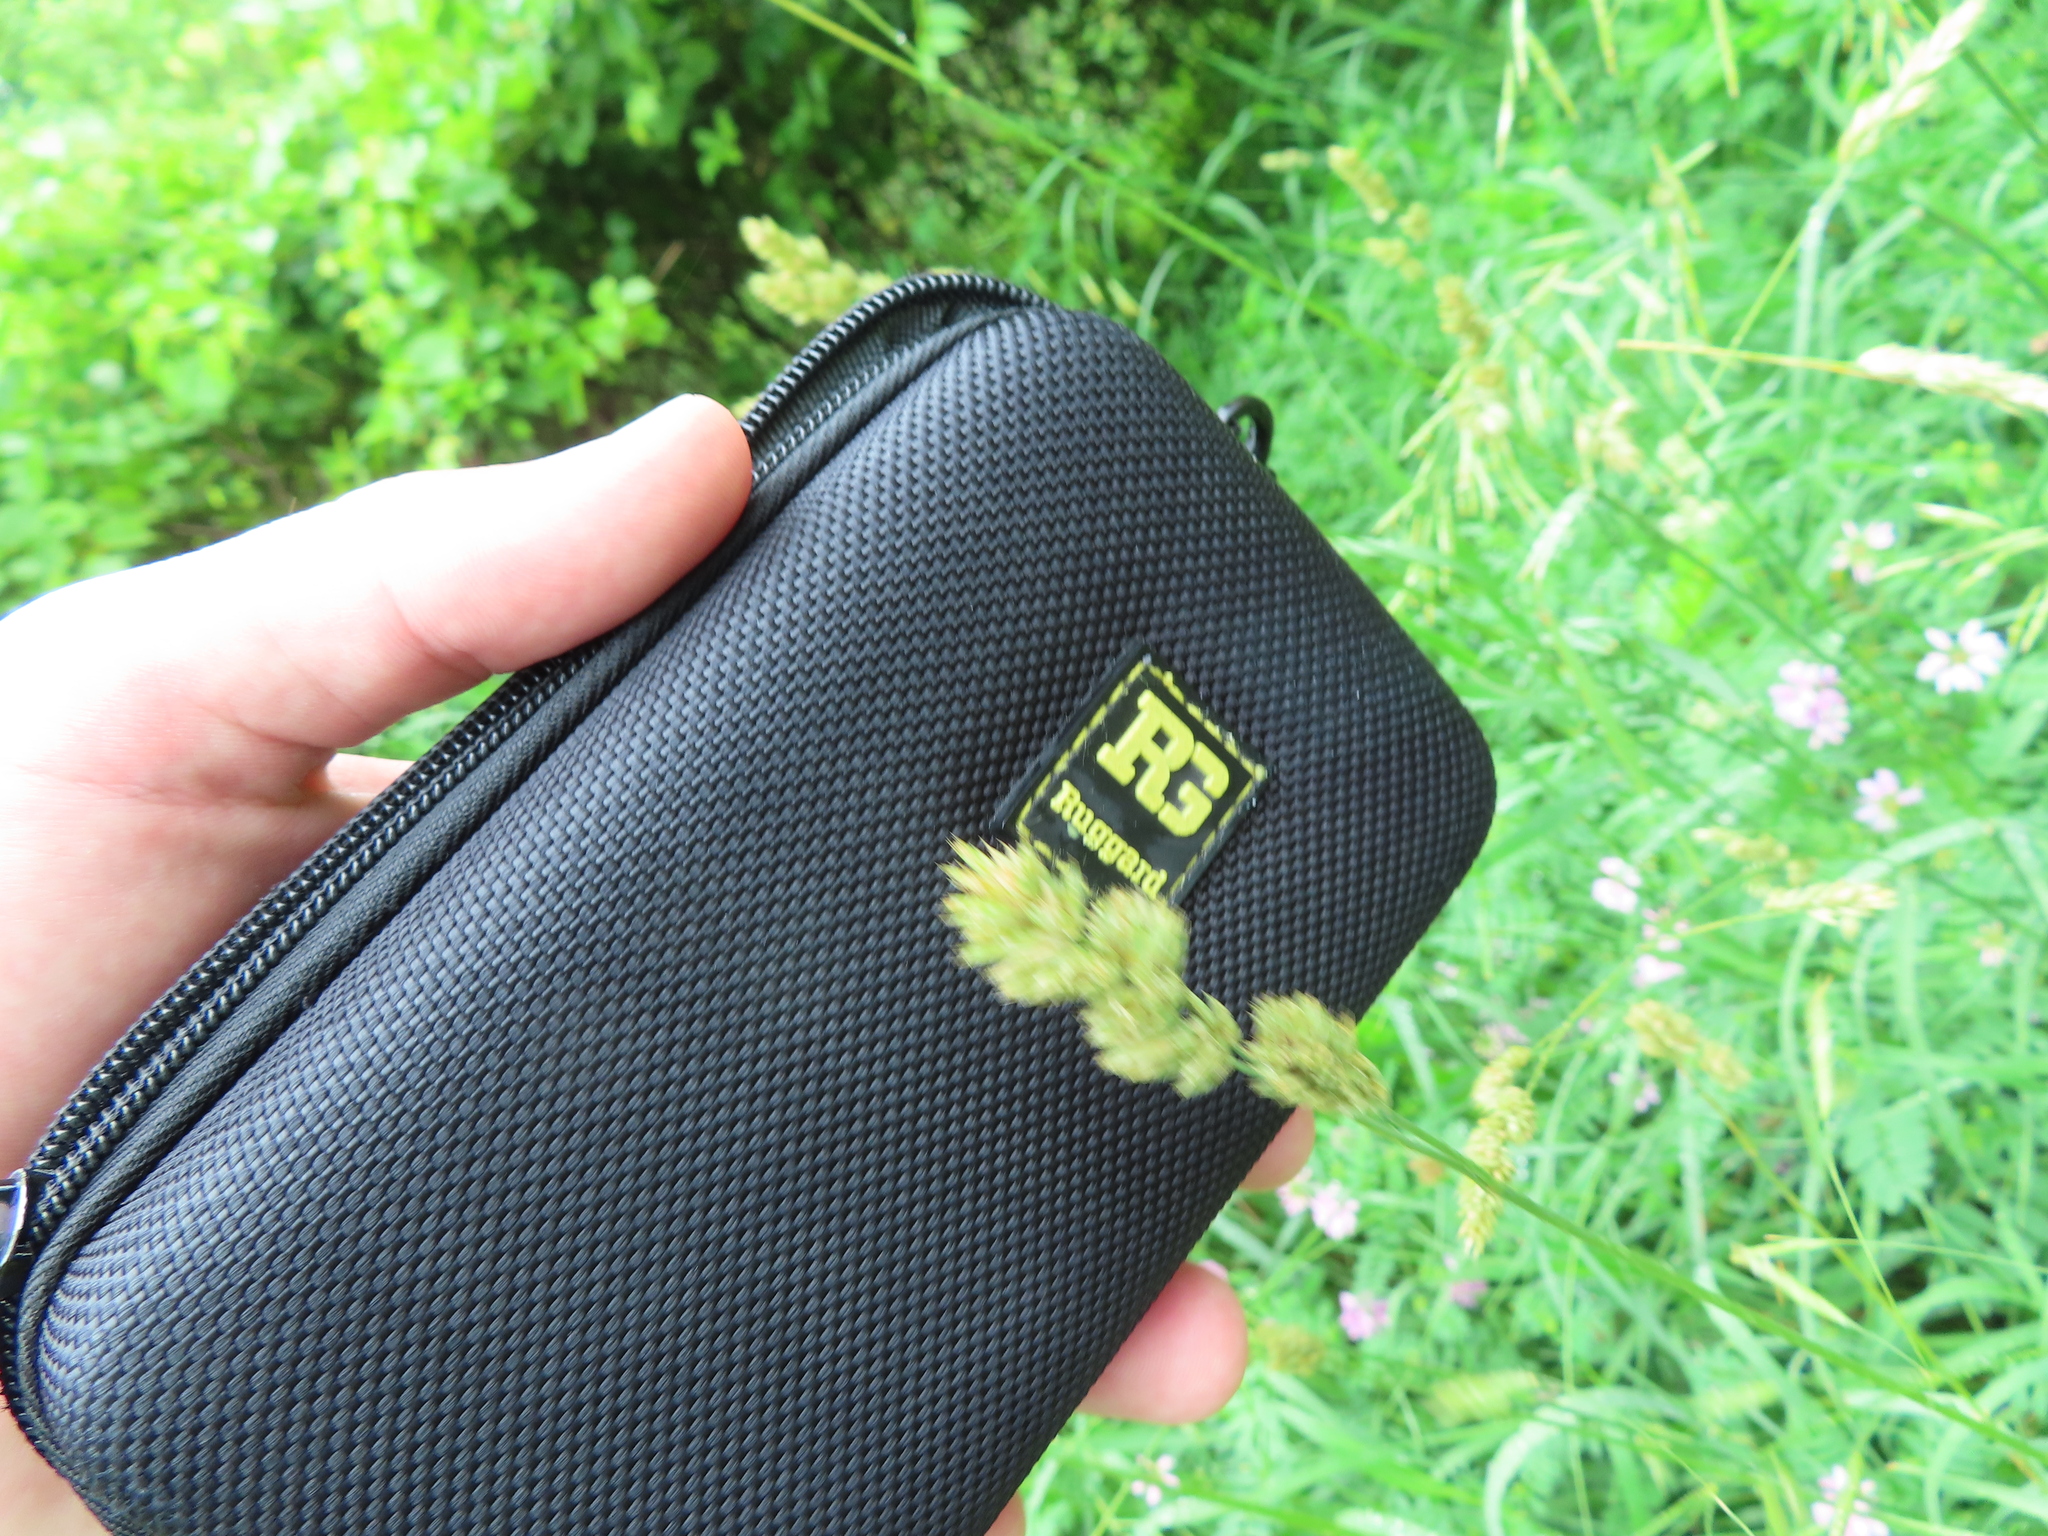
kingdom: Plantae
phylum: Tracheophyta
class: Liliopsida
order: Poales
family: Poaceae
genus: Dactylis
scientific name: Dactylis glomerata
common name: Orchardgrass
